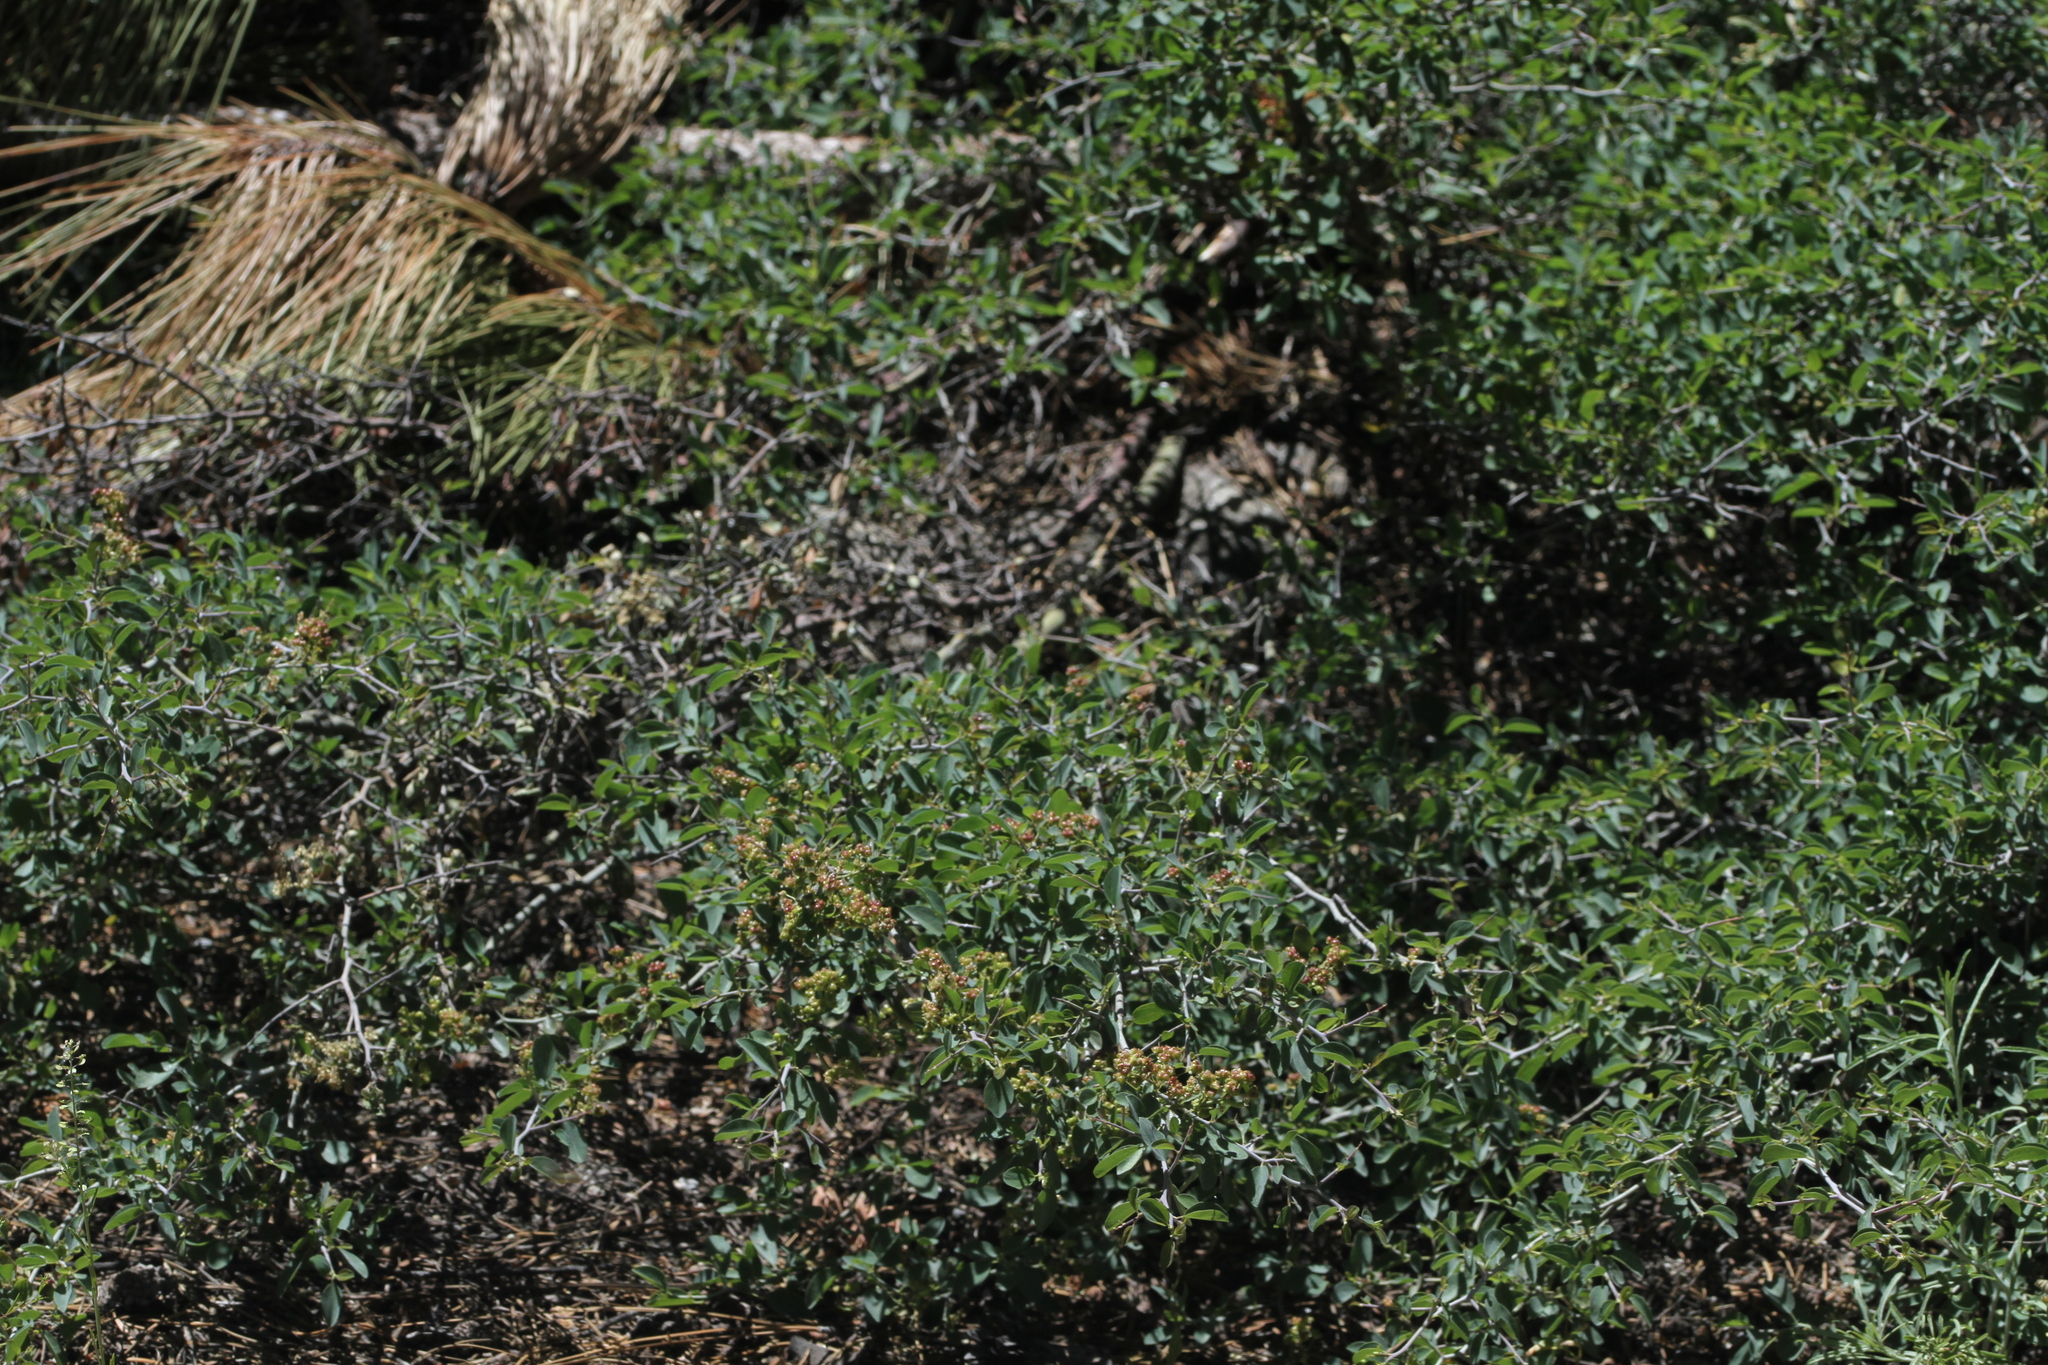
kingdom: Plantae
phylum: Tracheophyta
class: Magnoliopsida
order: Rosales
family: Rhamnaceae
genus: Ceanothus
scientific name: Ceanothus cordulatus
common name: Mountain whitethorn
